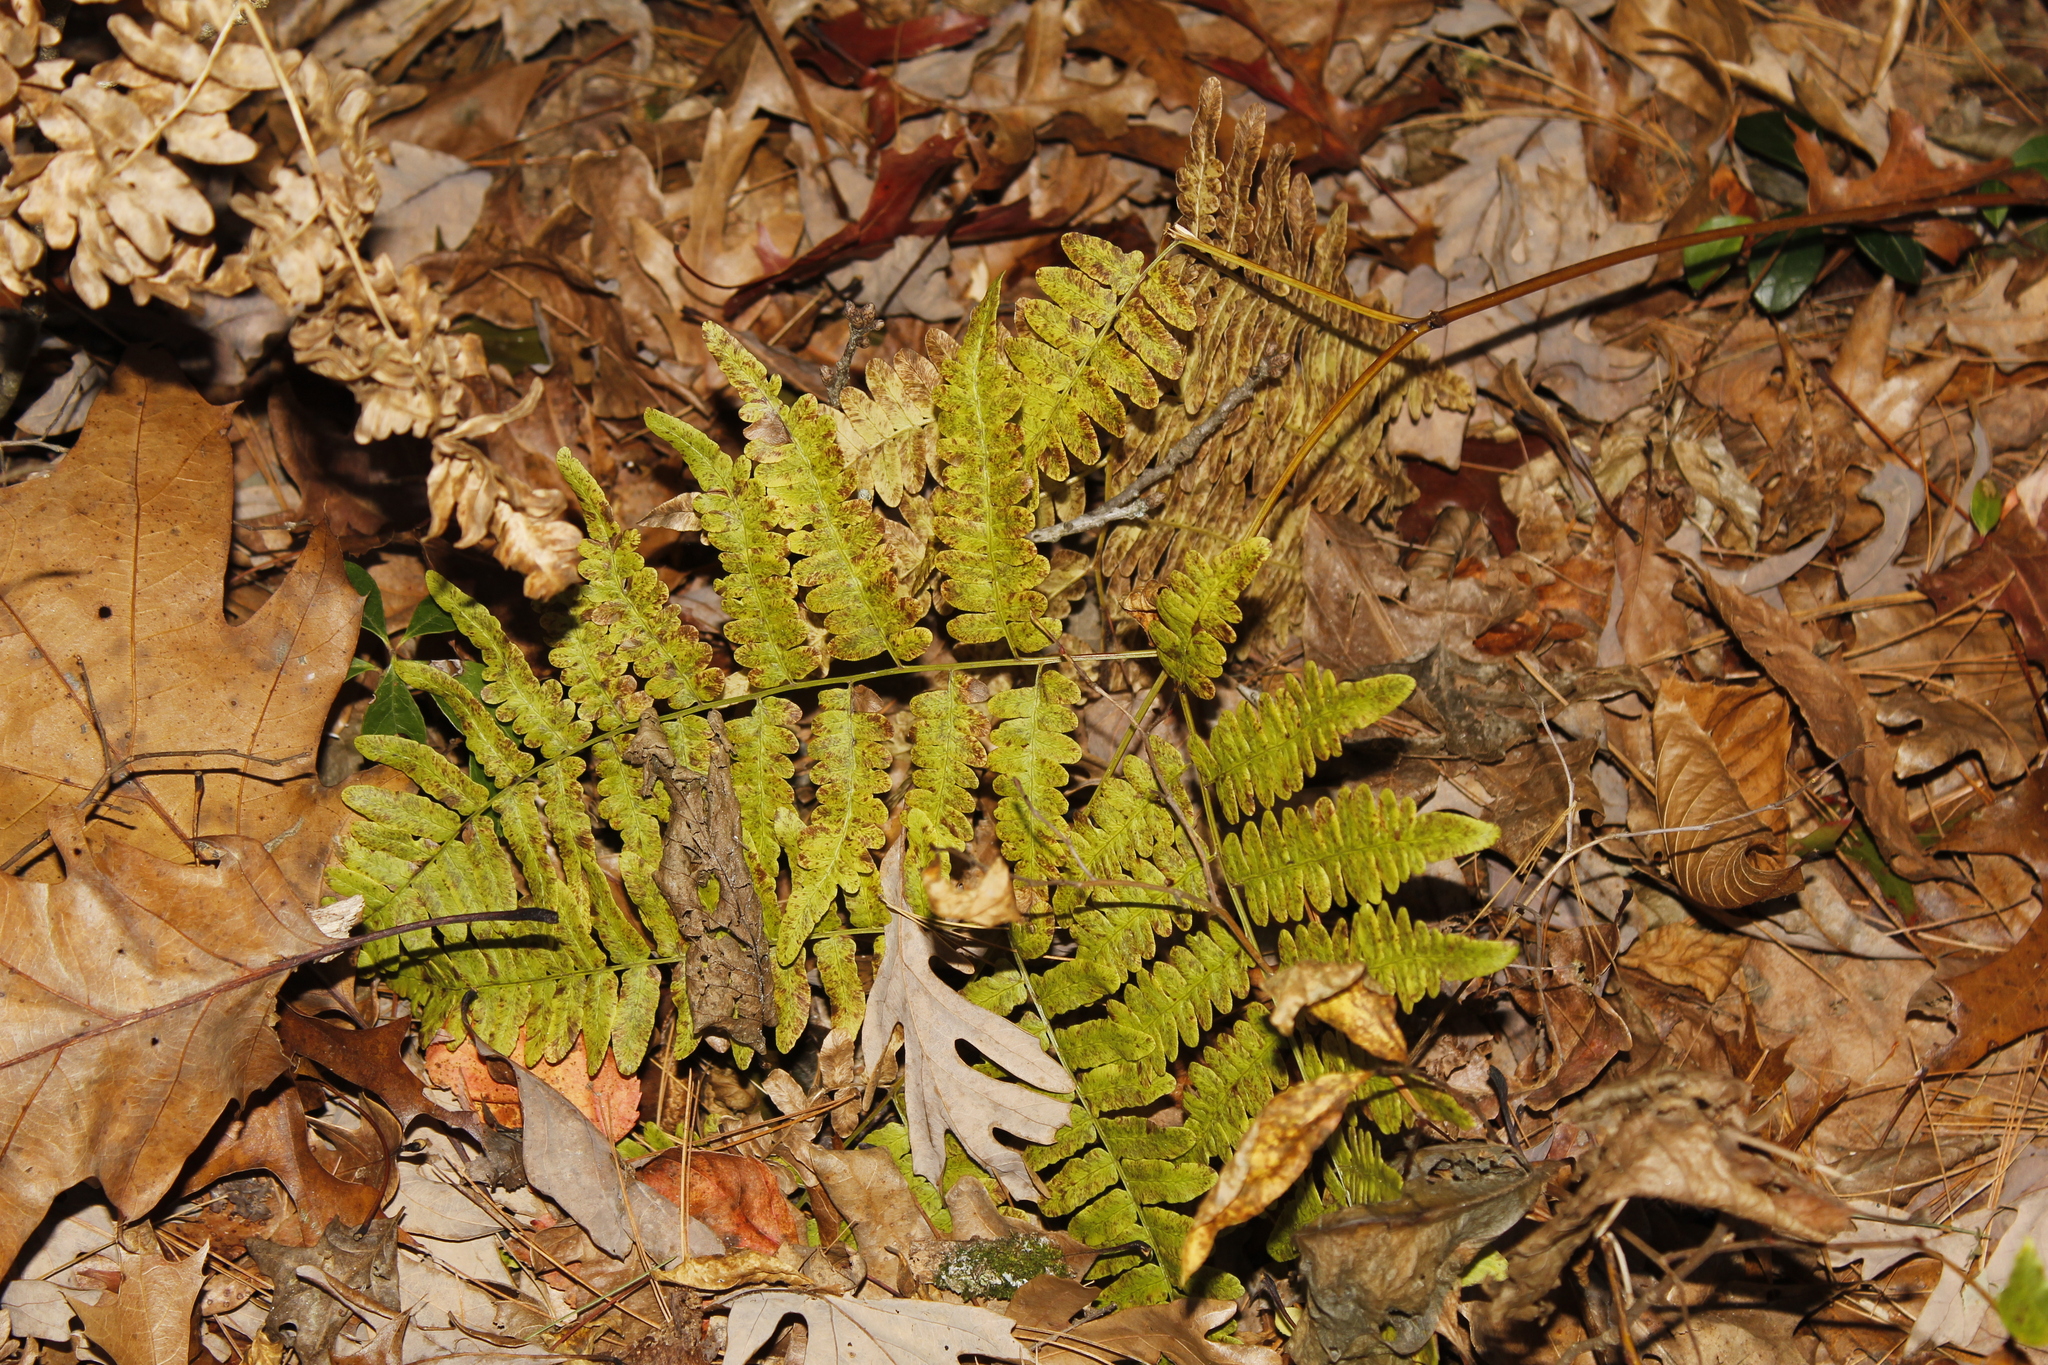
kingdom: Plantae
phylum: Tracheophyta
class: Polypodiopsida
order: Polypodiales
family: Dennstaedtiaceae
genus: Pteridium
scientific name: Pteridium aquilinum
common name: Bracken
